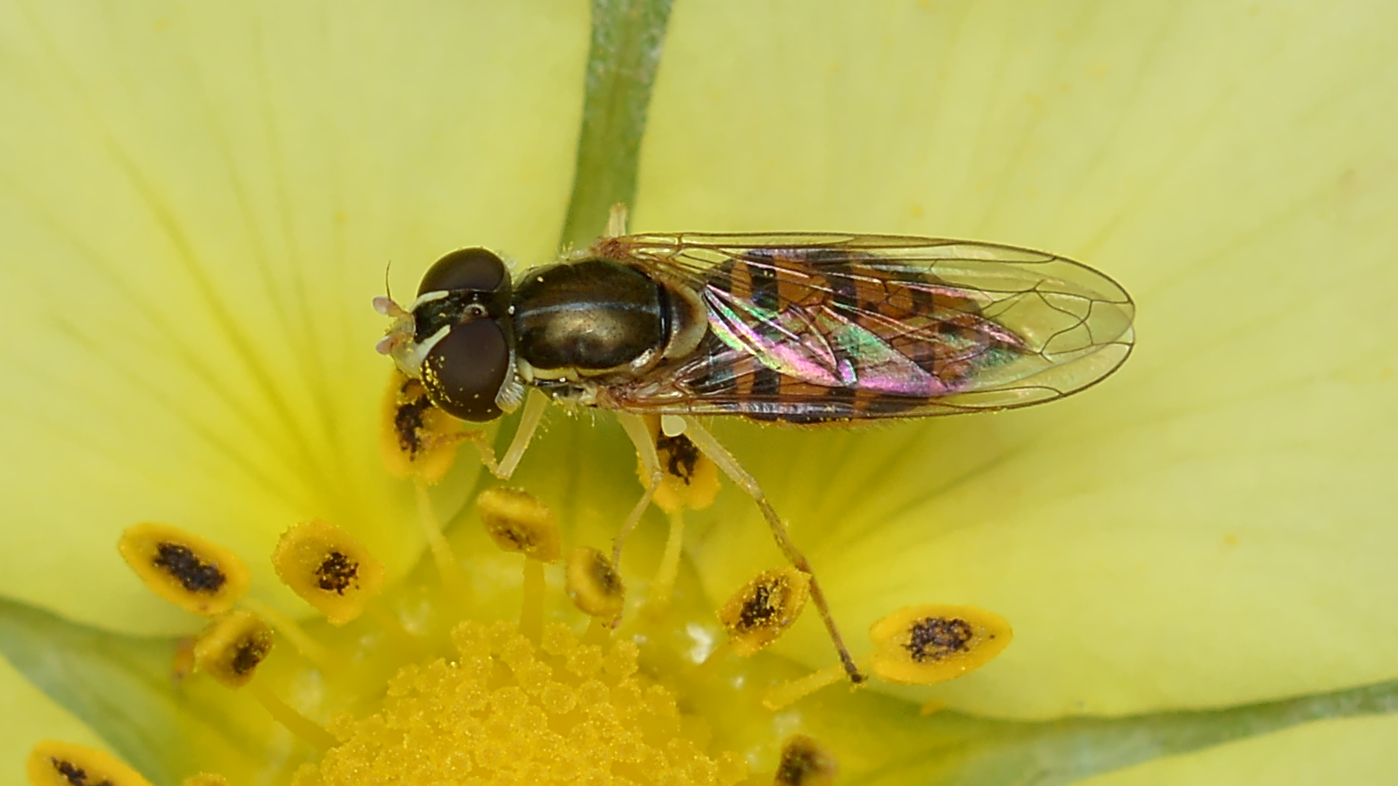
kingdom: Animalia
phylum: Arthropoda
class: Insecta
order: Diptera
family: Syrphidae
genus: Toxomerus
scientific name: Toxomerus marginatus
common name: Syrphid fly
